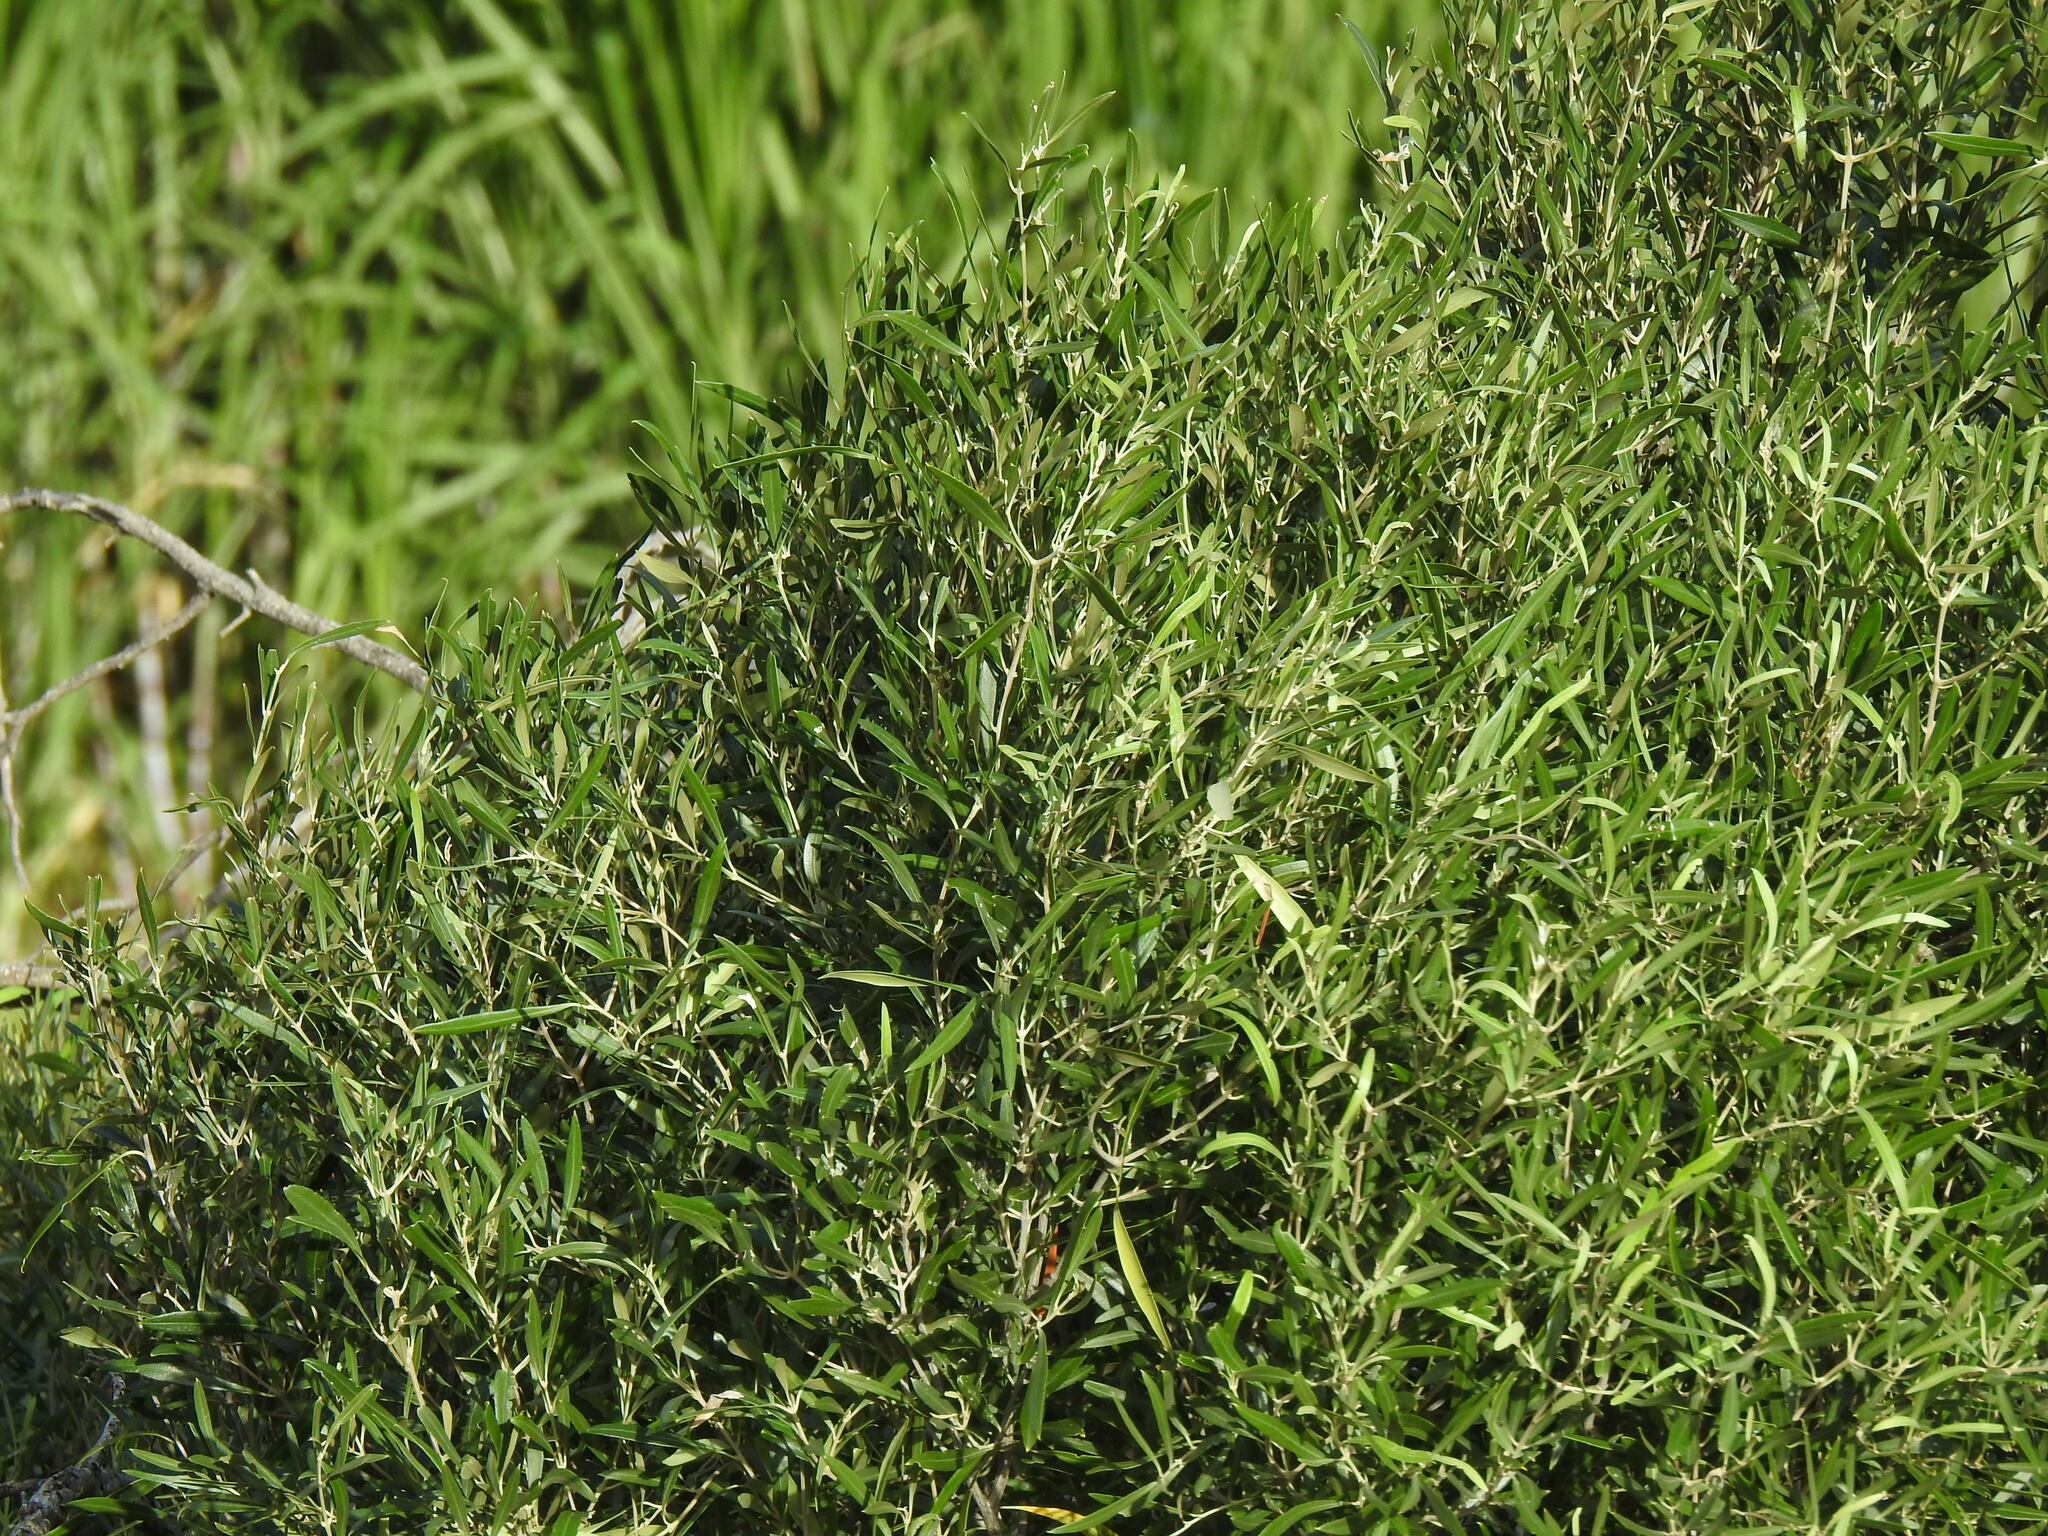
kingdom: Plantae
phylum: Tracheophyta
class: Magnoliopsida
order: Lamiales
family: Oleaceae
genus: Olea
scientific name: Olea europaea
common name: Olive
